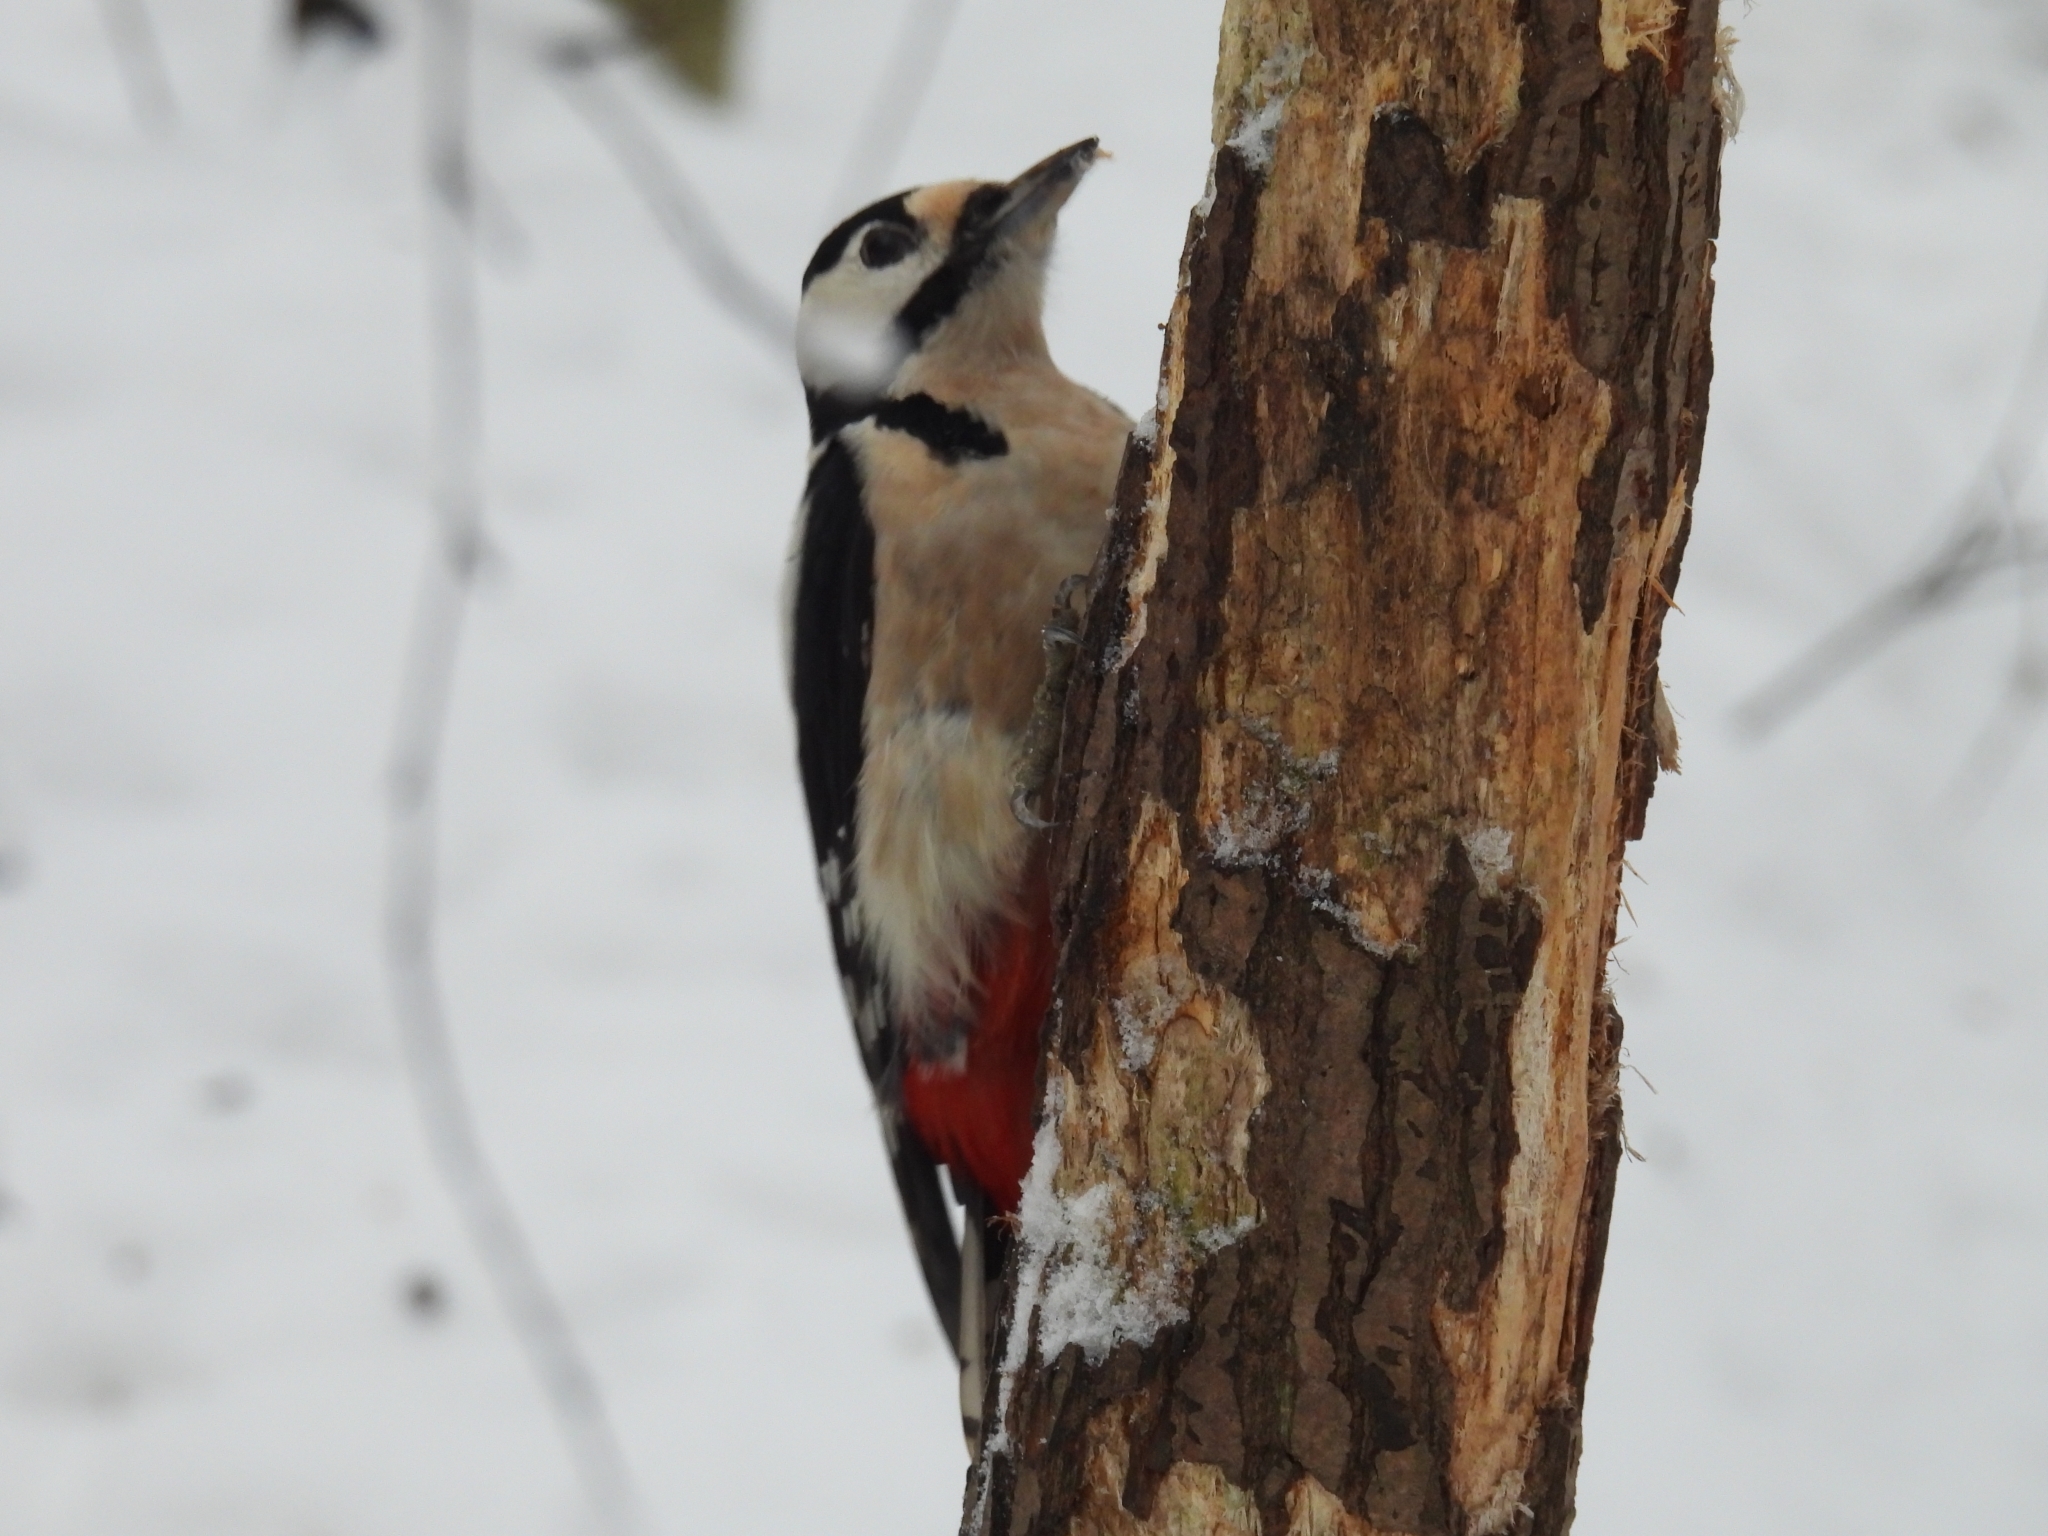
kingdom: Animalia
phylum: Chordata
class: Aves
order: Piciformes
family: Picidae
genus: Dendrocopos
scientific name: Dendrocopos major
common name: Great spotted woodpecker
